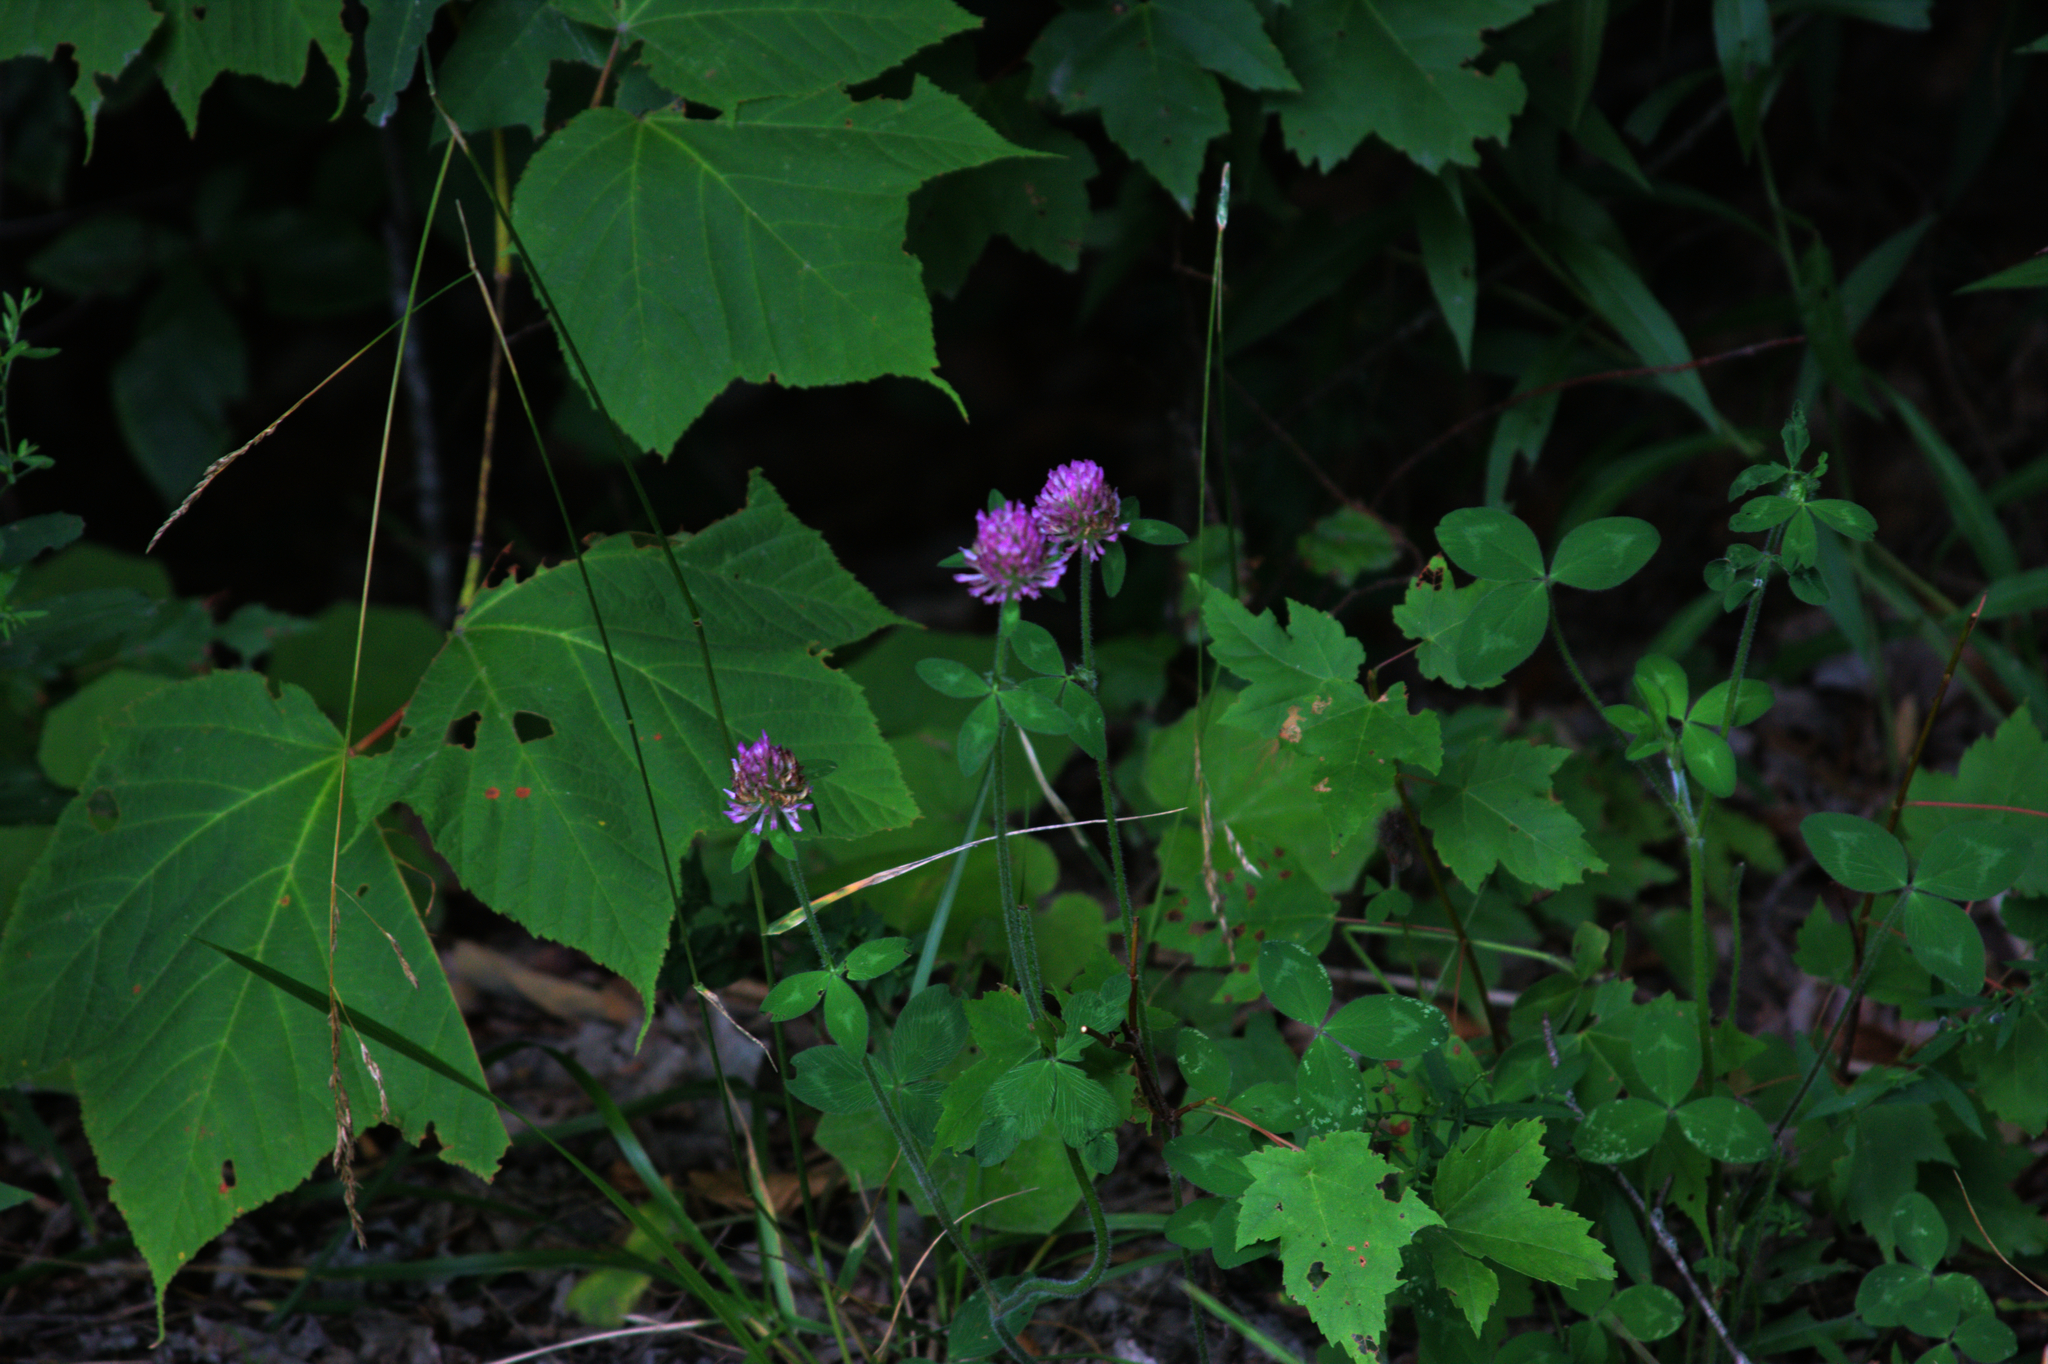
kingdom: Plantae
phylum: Tracheophyta
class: Magnoliopsida
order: Sapindales
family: Sapindaceae
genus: Acer
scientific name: Acer pensylvanicum
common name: Moosewood
